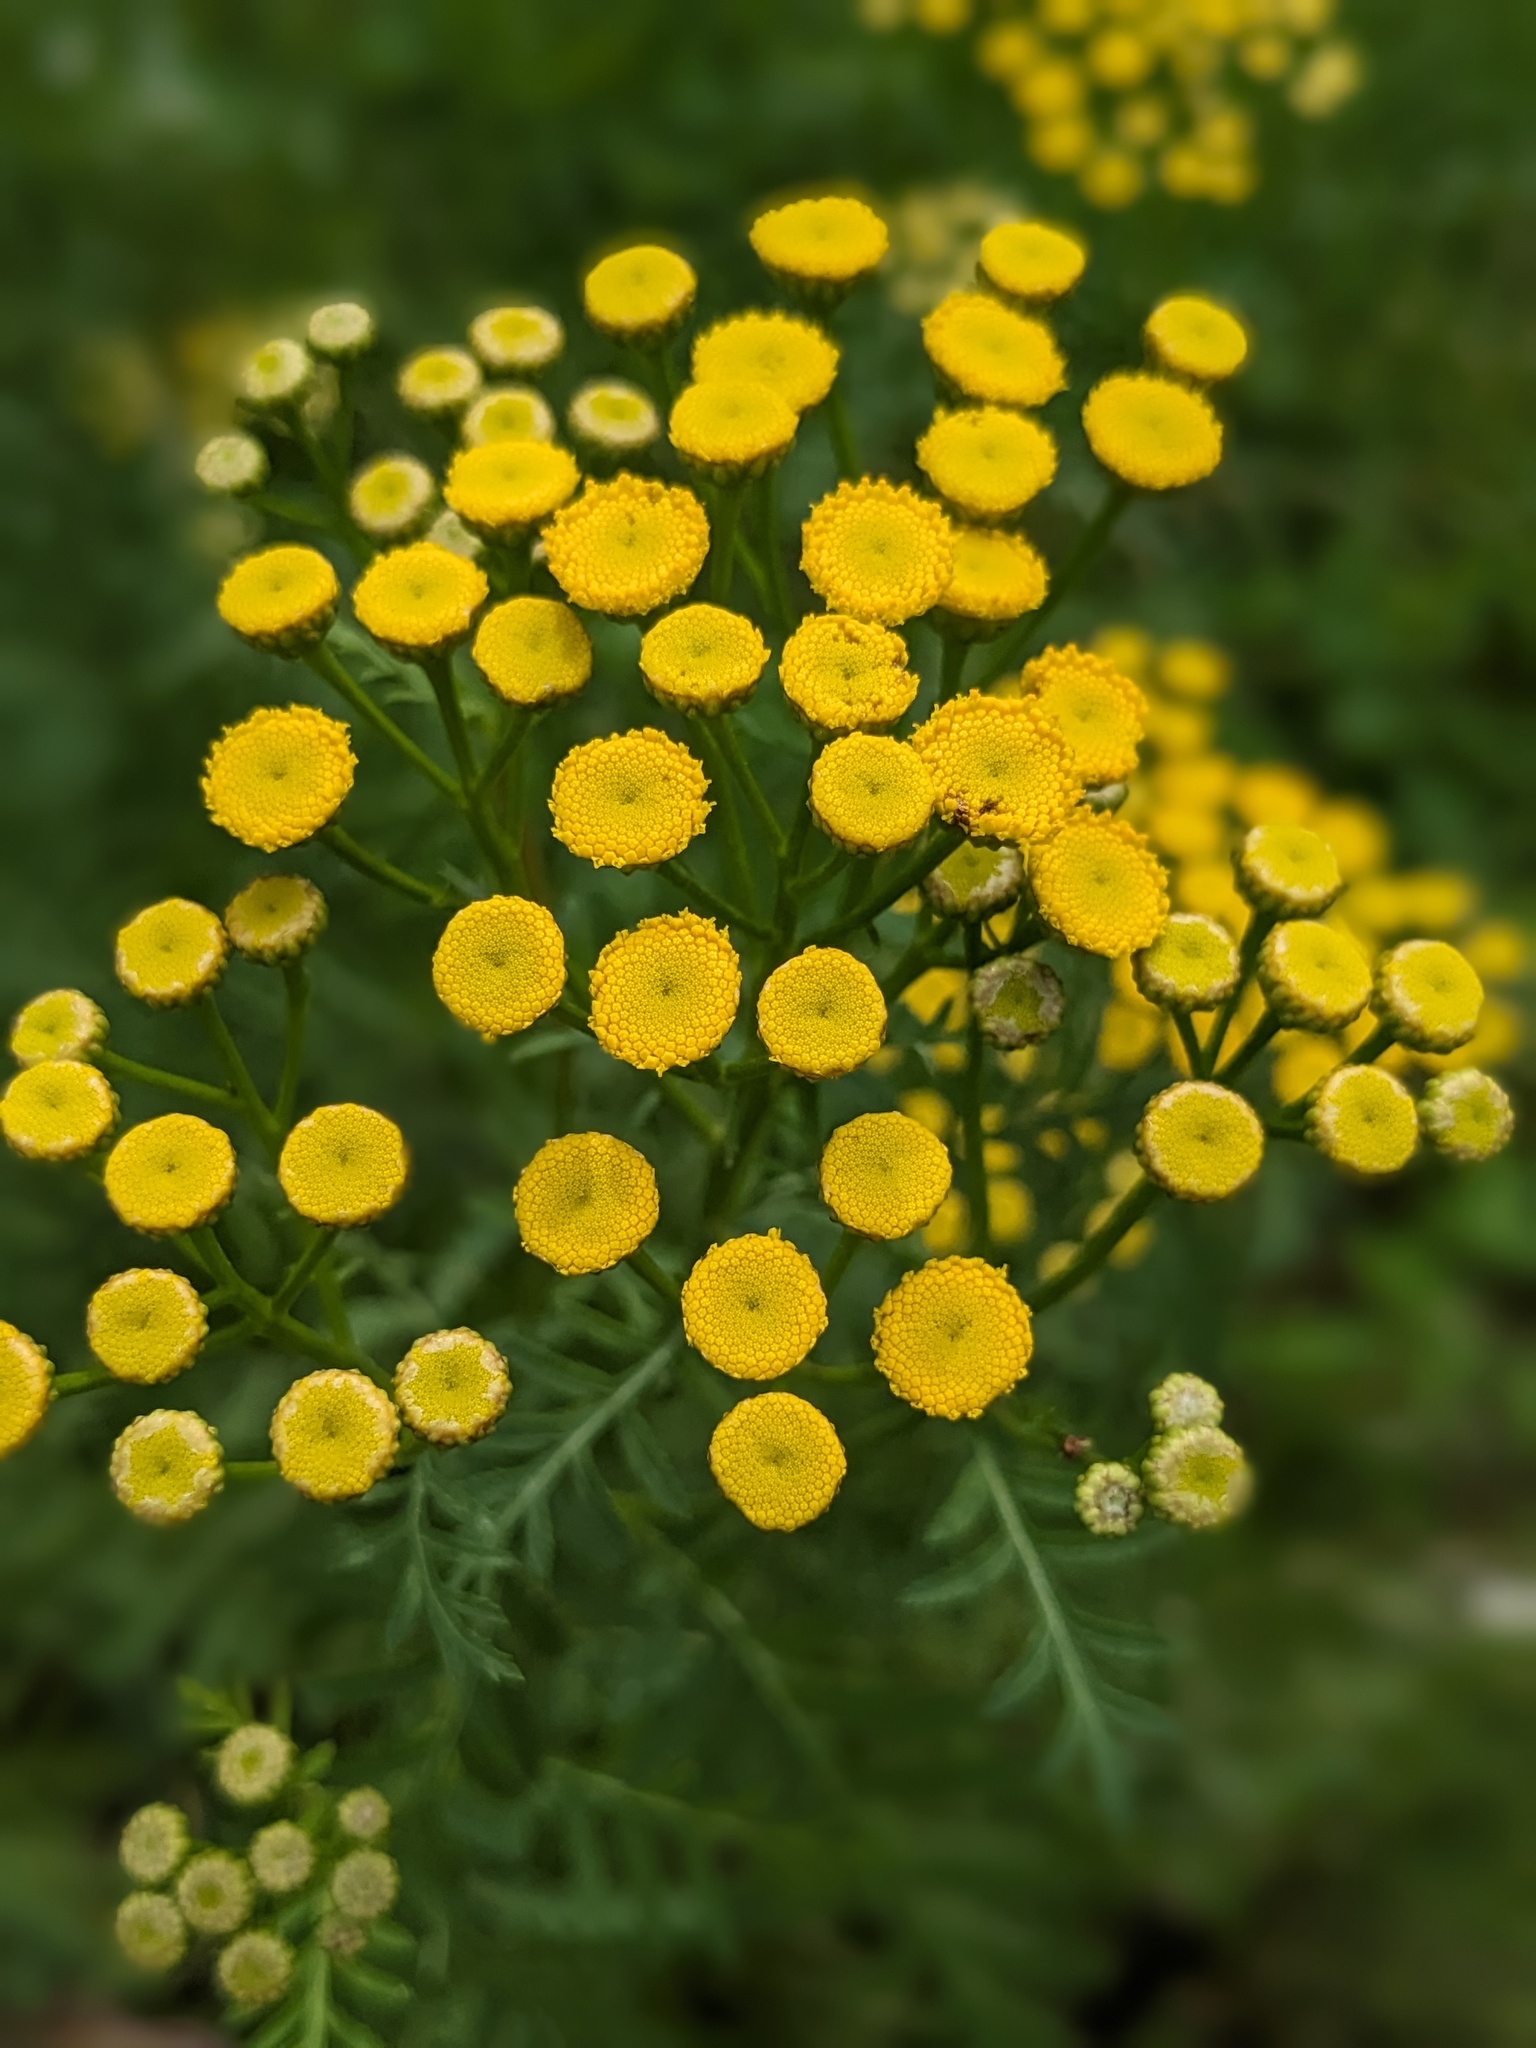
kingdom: Plantae
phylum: Tracheophyta
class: Magnoliopsida
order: Asterales
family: Asteraceae
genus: Tanacetum
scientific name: Tanacetum vulgare
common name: Common tansy
